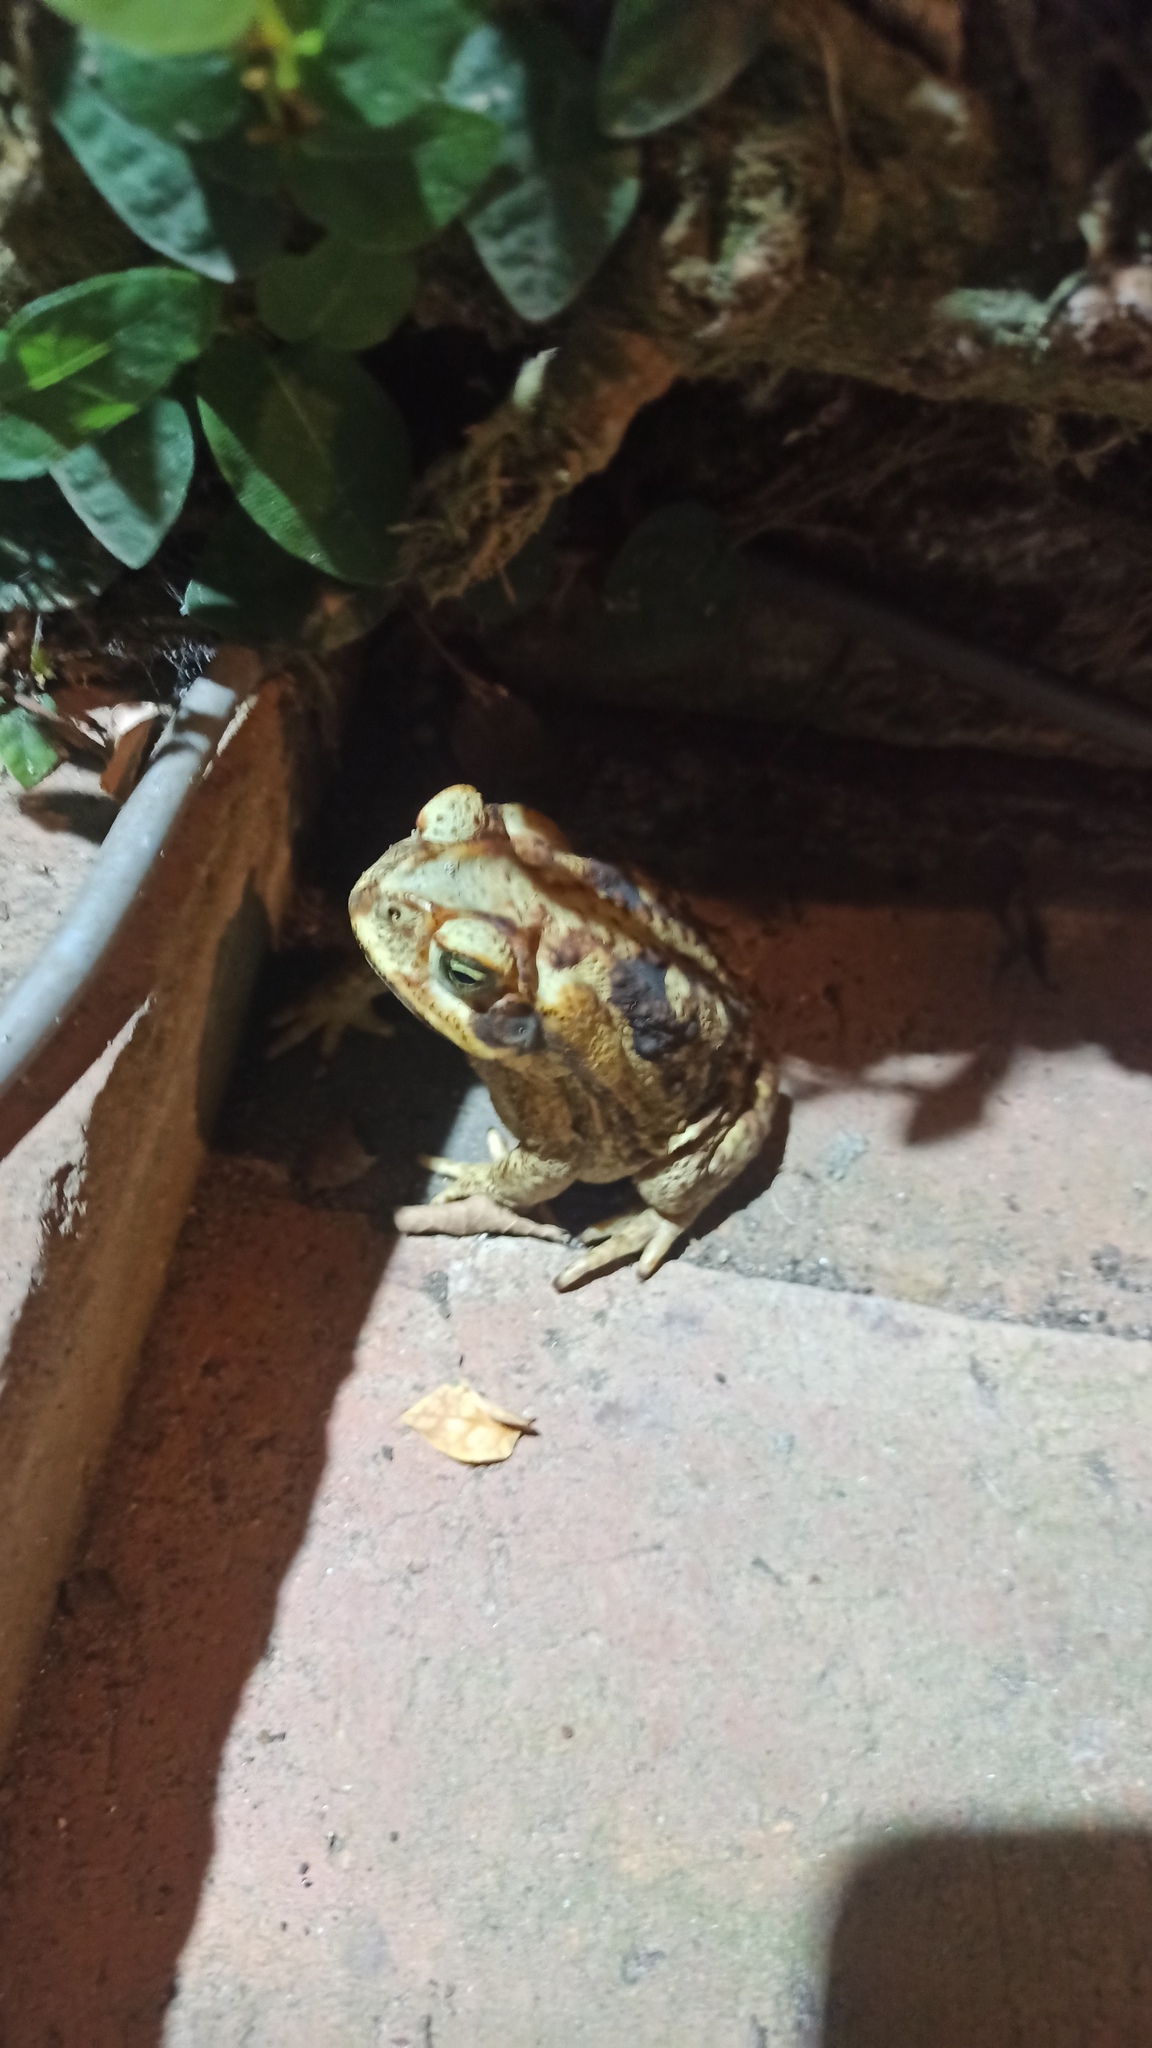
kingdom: Animalia
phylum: Chordata
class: Amphibia
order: Anura
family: Bufonidae
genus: Rhinella
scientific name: Rhinella diptycha
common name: Cope's toad
